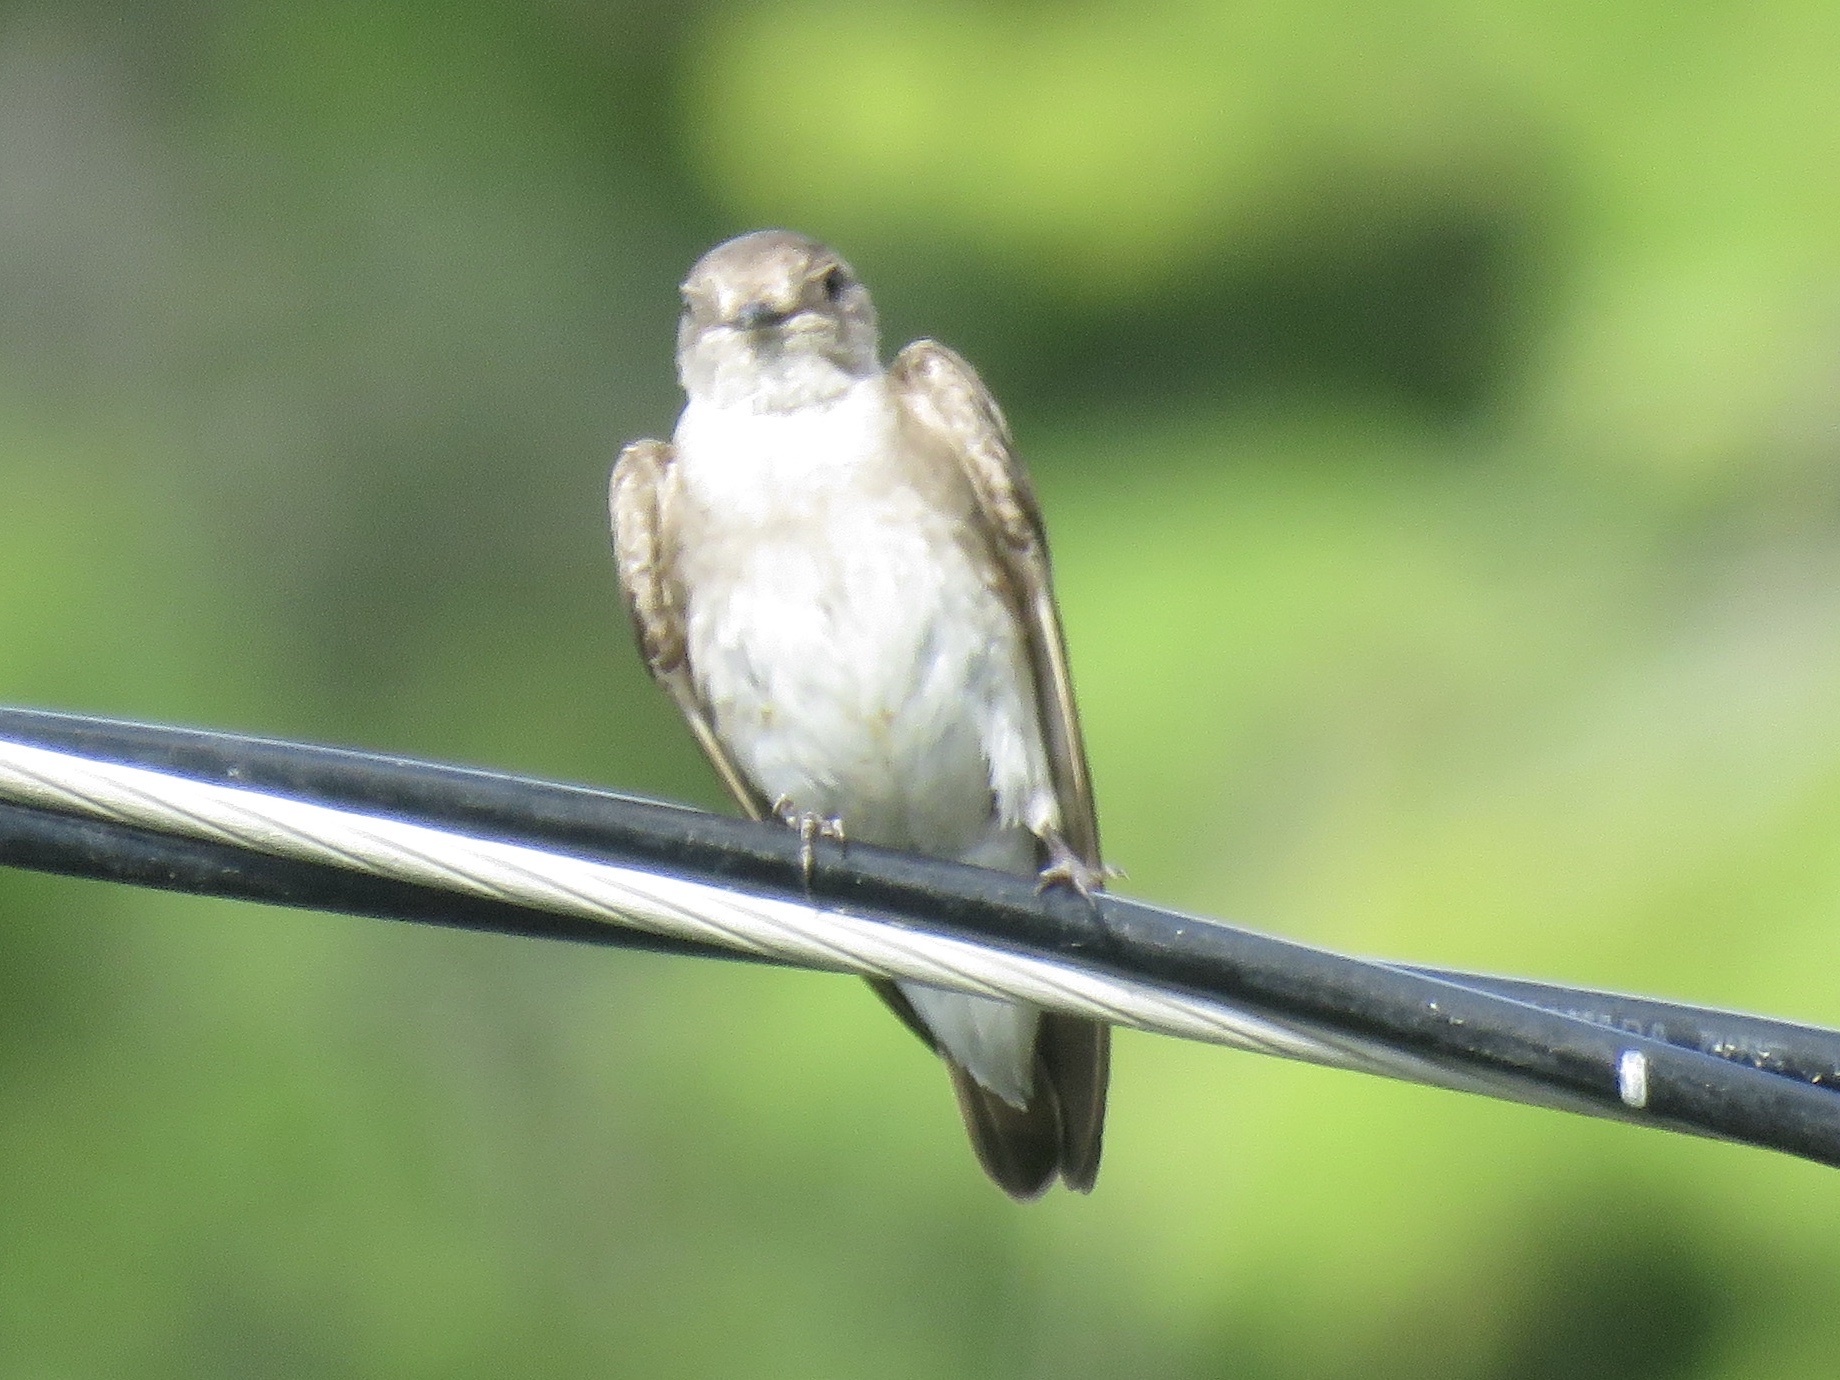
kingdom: Animalia
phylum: Chordata
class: Aves
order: Passeriformes
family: Hirundinidae
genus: Stelgidopteryx
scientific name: Stelgidopteryx serripennis
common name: Northern rough-winged swallow
